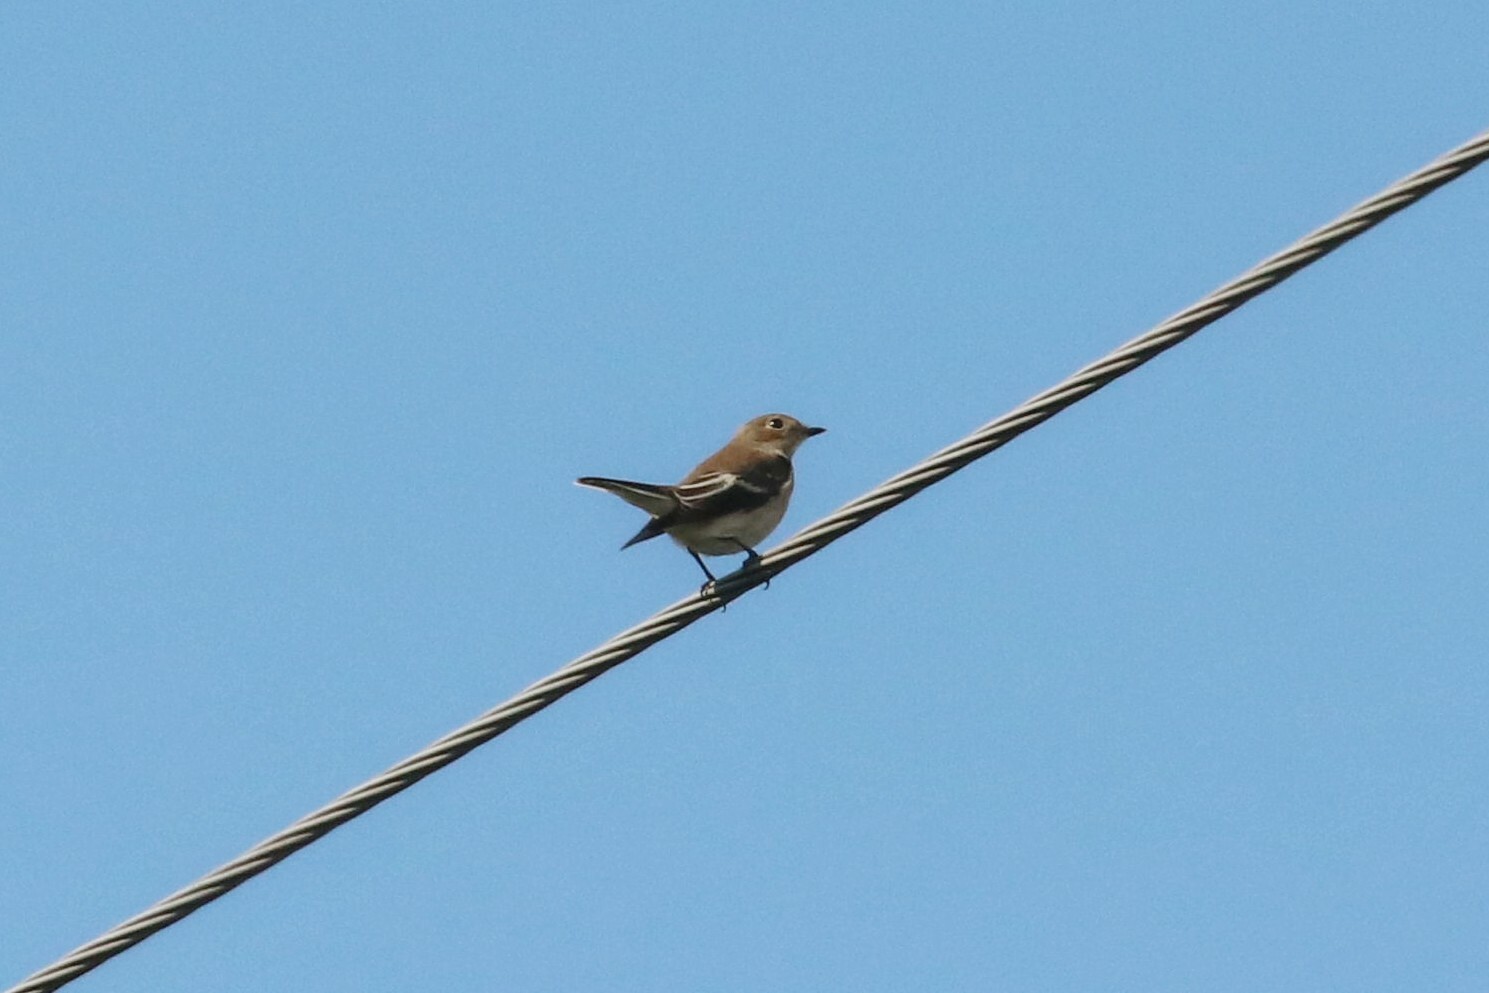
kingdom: Animalia
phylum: Chordata
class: Aves
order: Passeriformes
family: Muscicapidae
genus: Ficedula
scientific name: Ficedula hypoleuca
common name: European pied flycatcher
